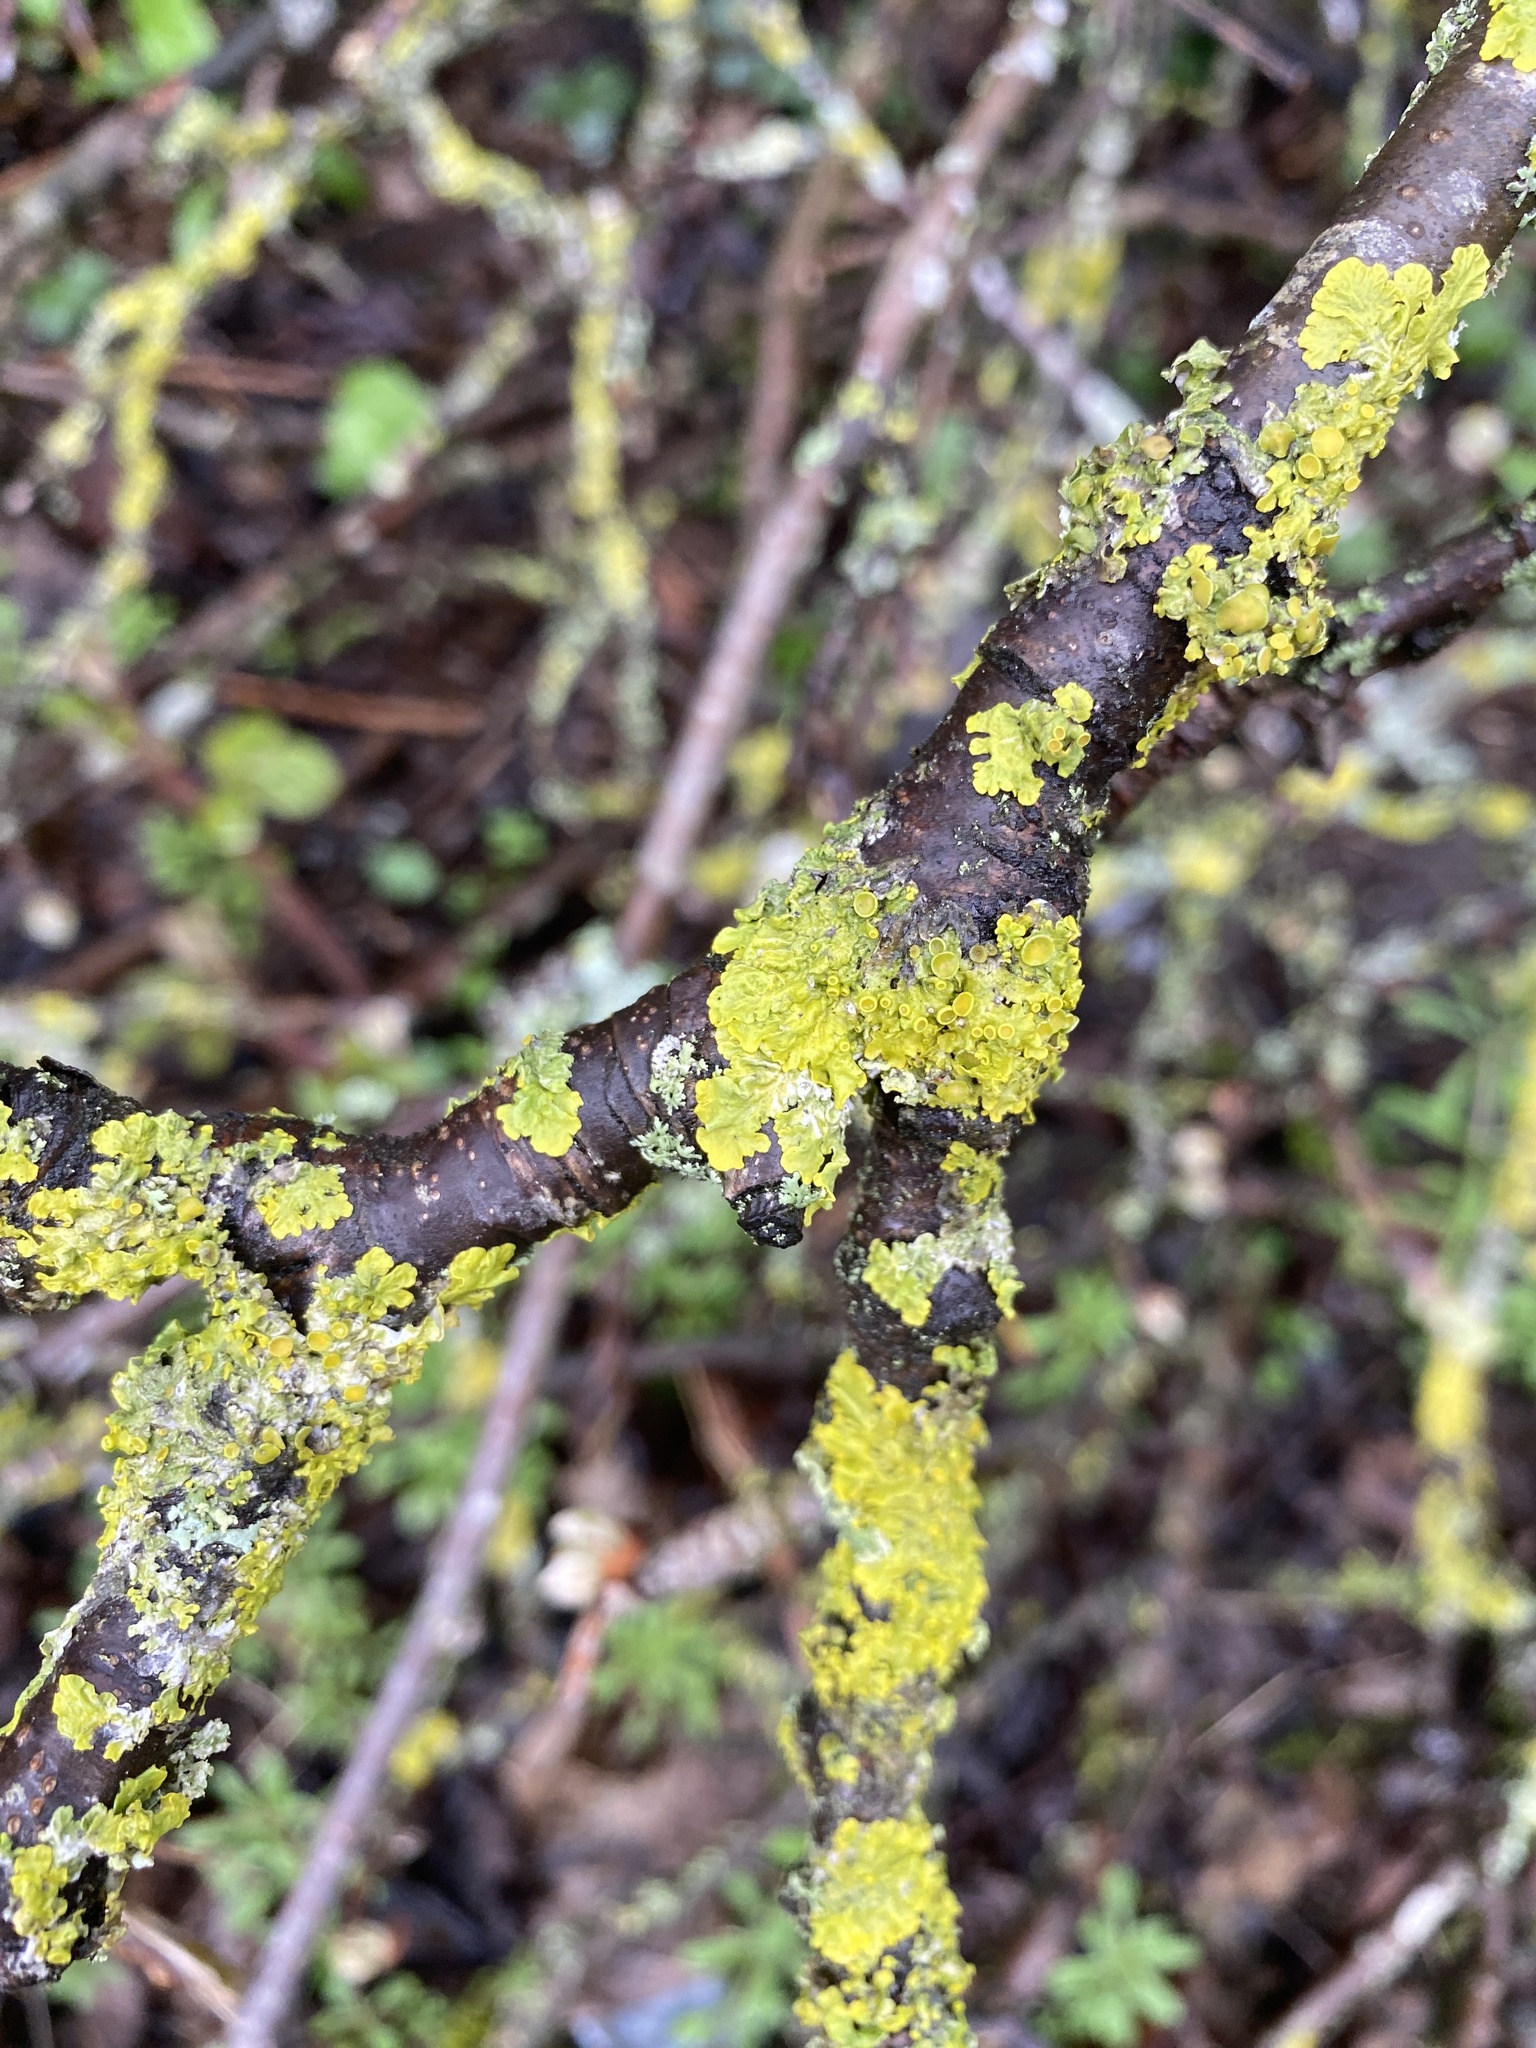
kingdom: Fungi
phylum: Ascomycota
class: Lecanoromycetes
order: Teloschistales
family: Teloschistaceae
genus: Xanthoria
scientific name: Xanthoria parietina
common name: Common orange lichen
